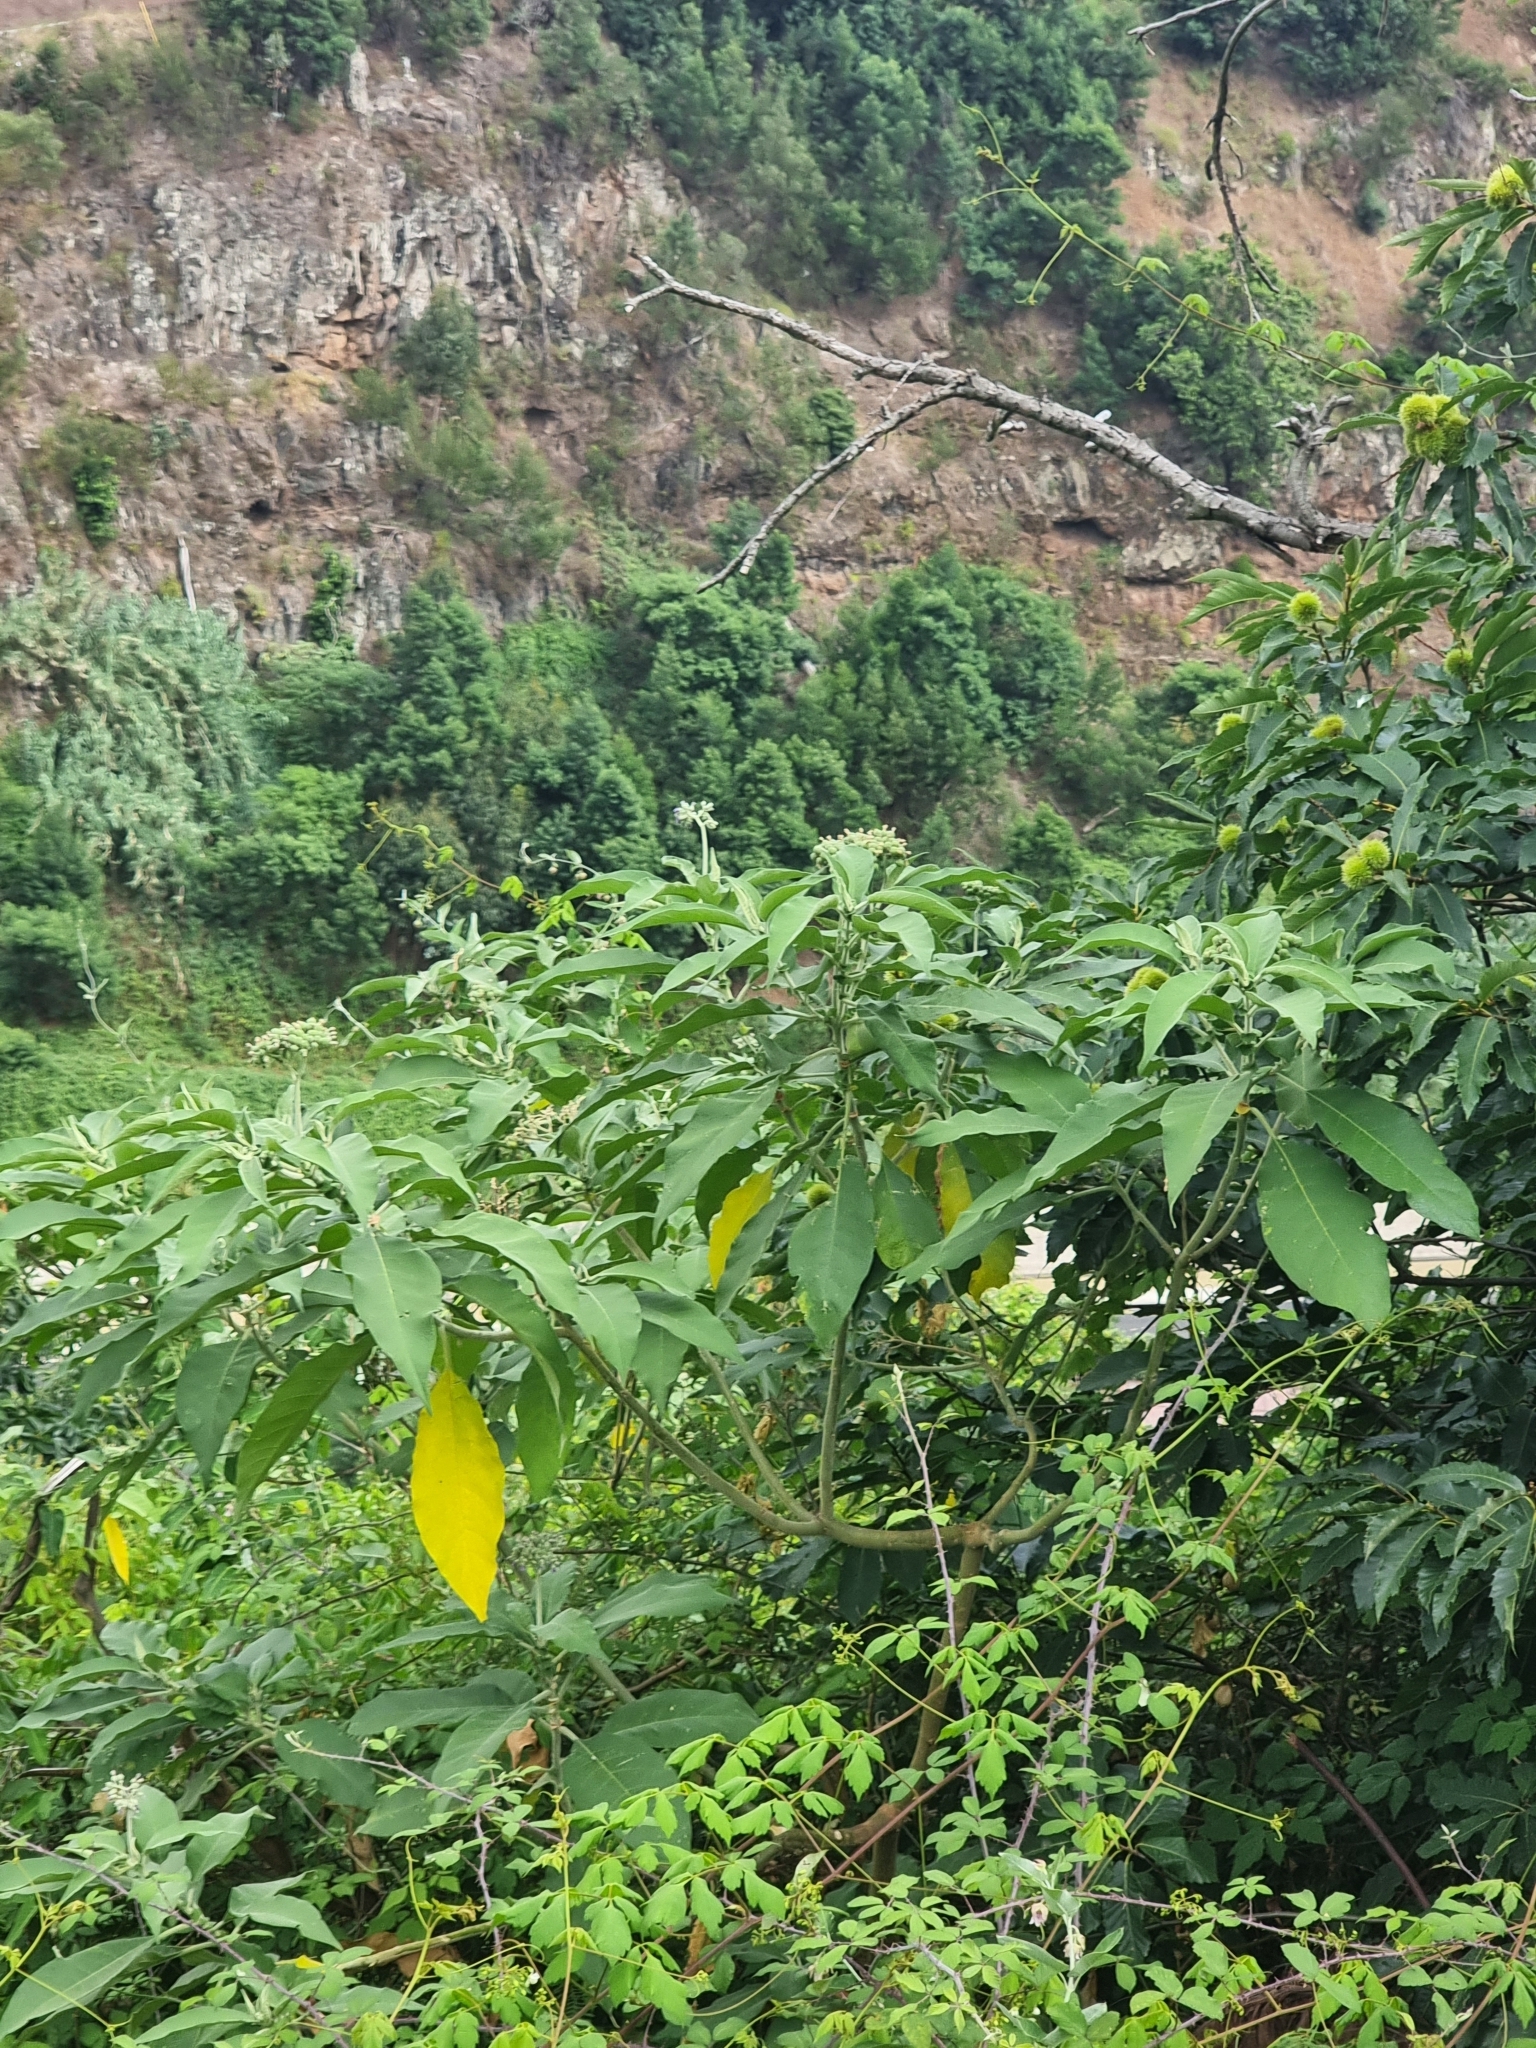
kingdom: Plantae
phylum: Tracheophyta
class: Magnoliopsida
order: Solanales
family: Solanaceae
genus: Solanum
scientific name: Solanum mauritianum
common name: Earleaf nightshade
